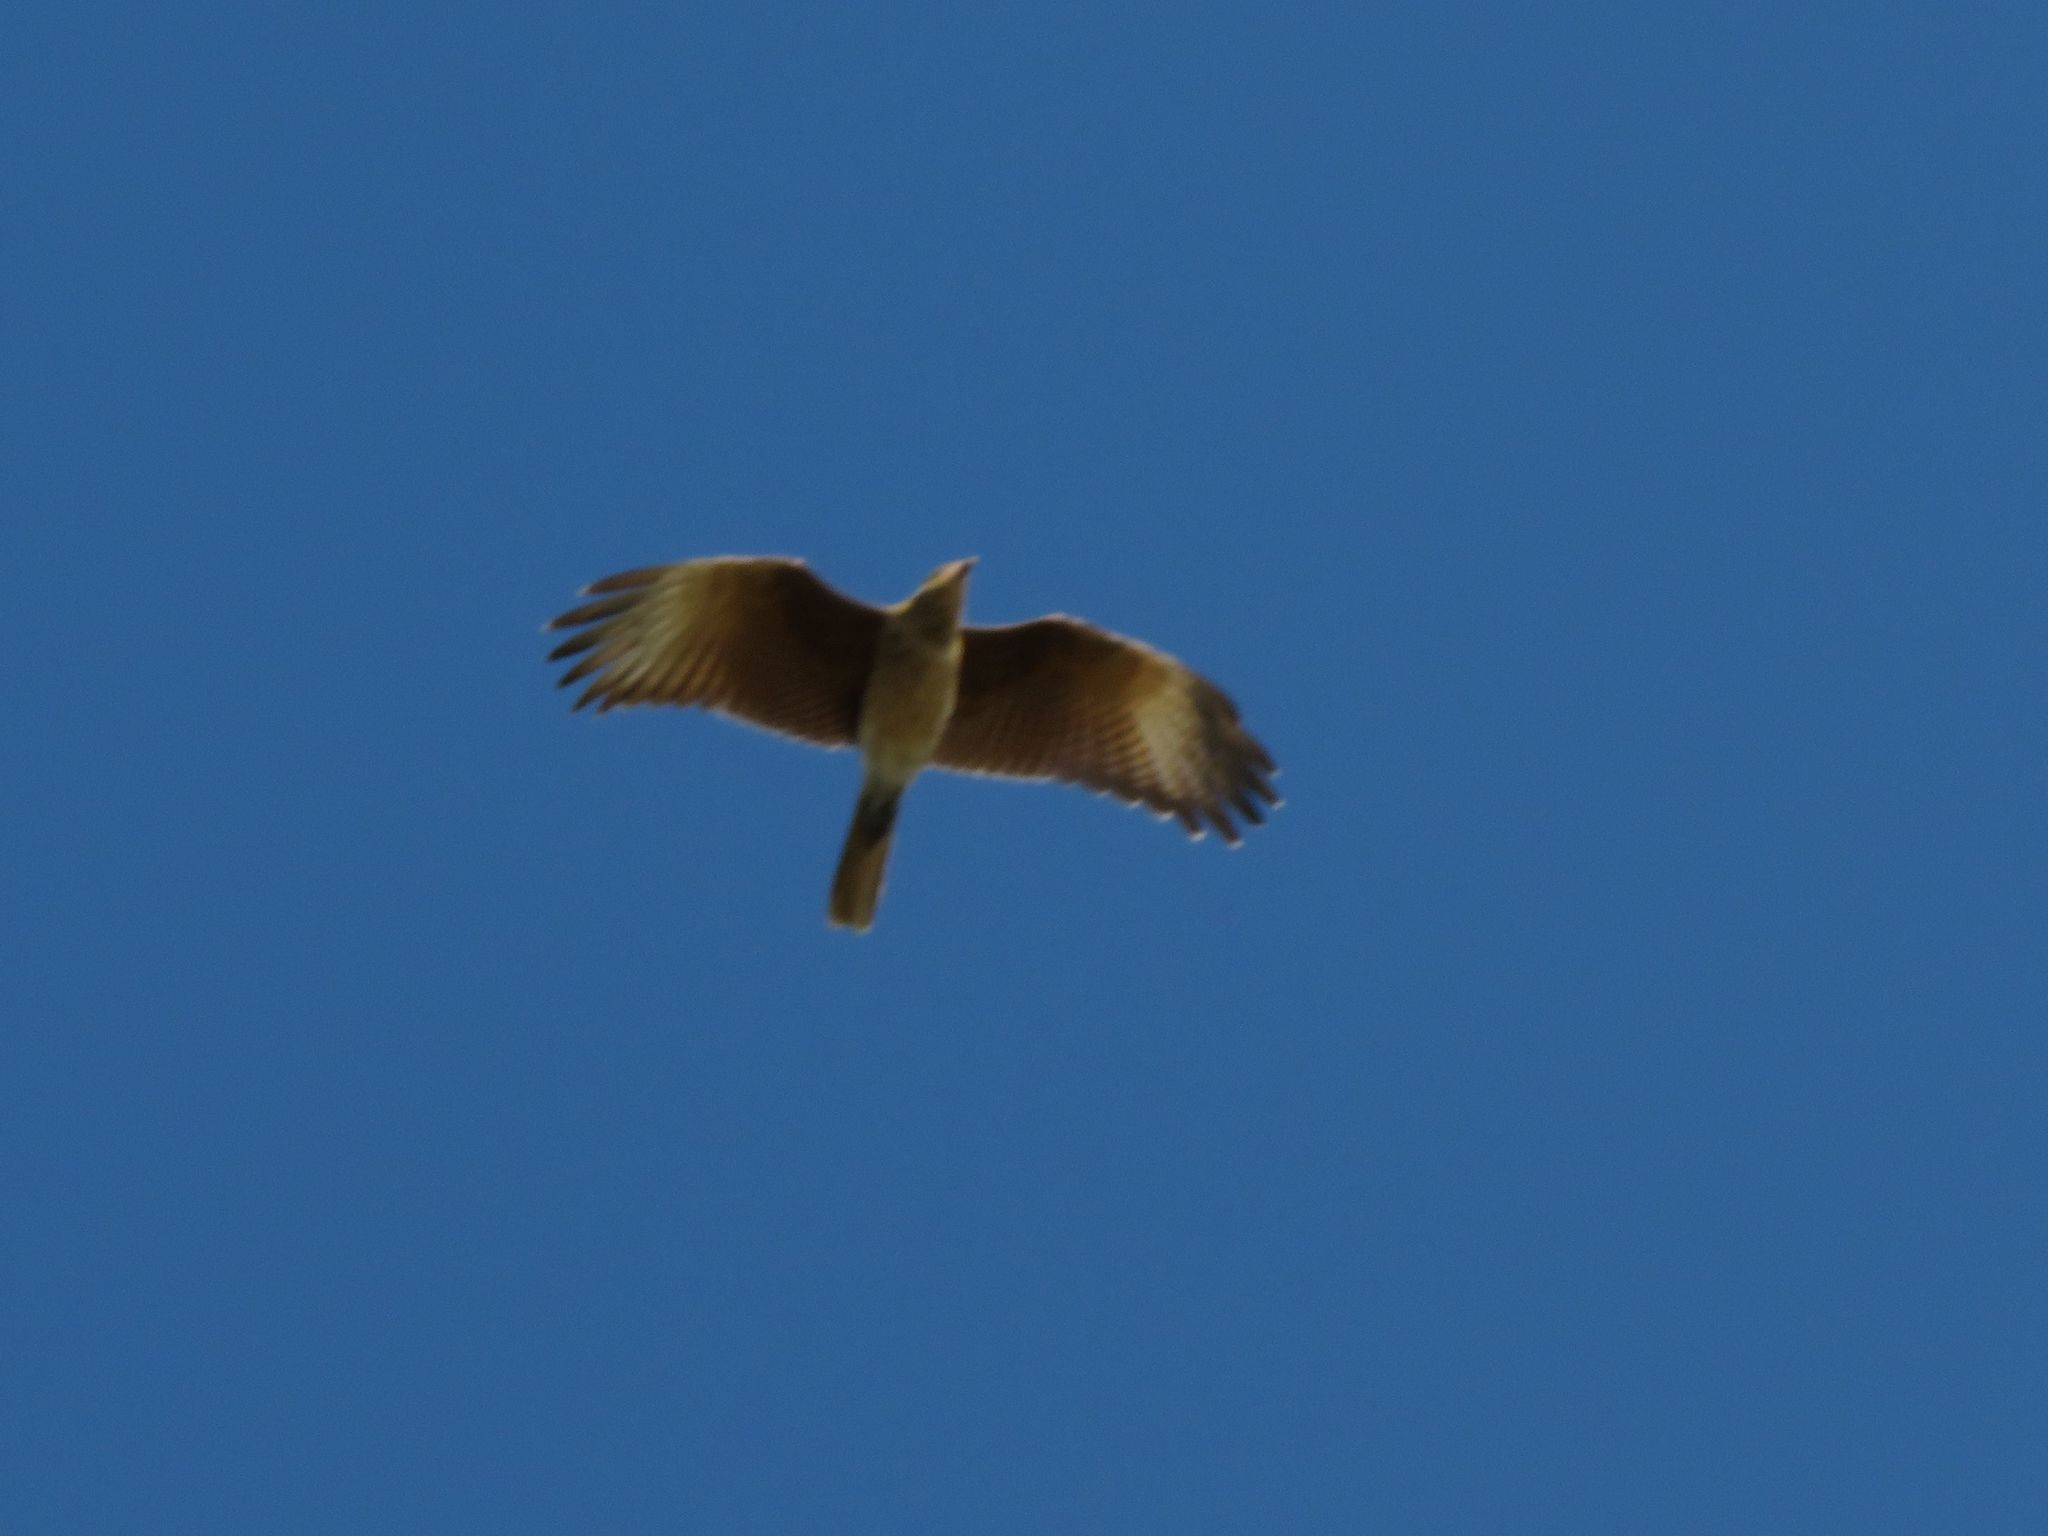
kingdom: Animalia
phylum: Chordata
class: Aves
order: Falconiformes
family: Falconidae
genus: Daptrius
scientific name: Daptrius
